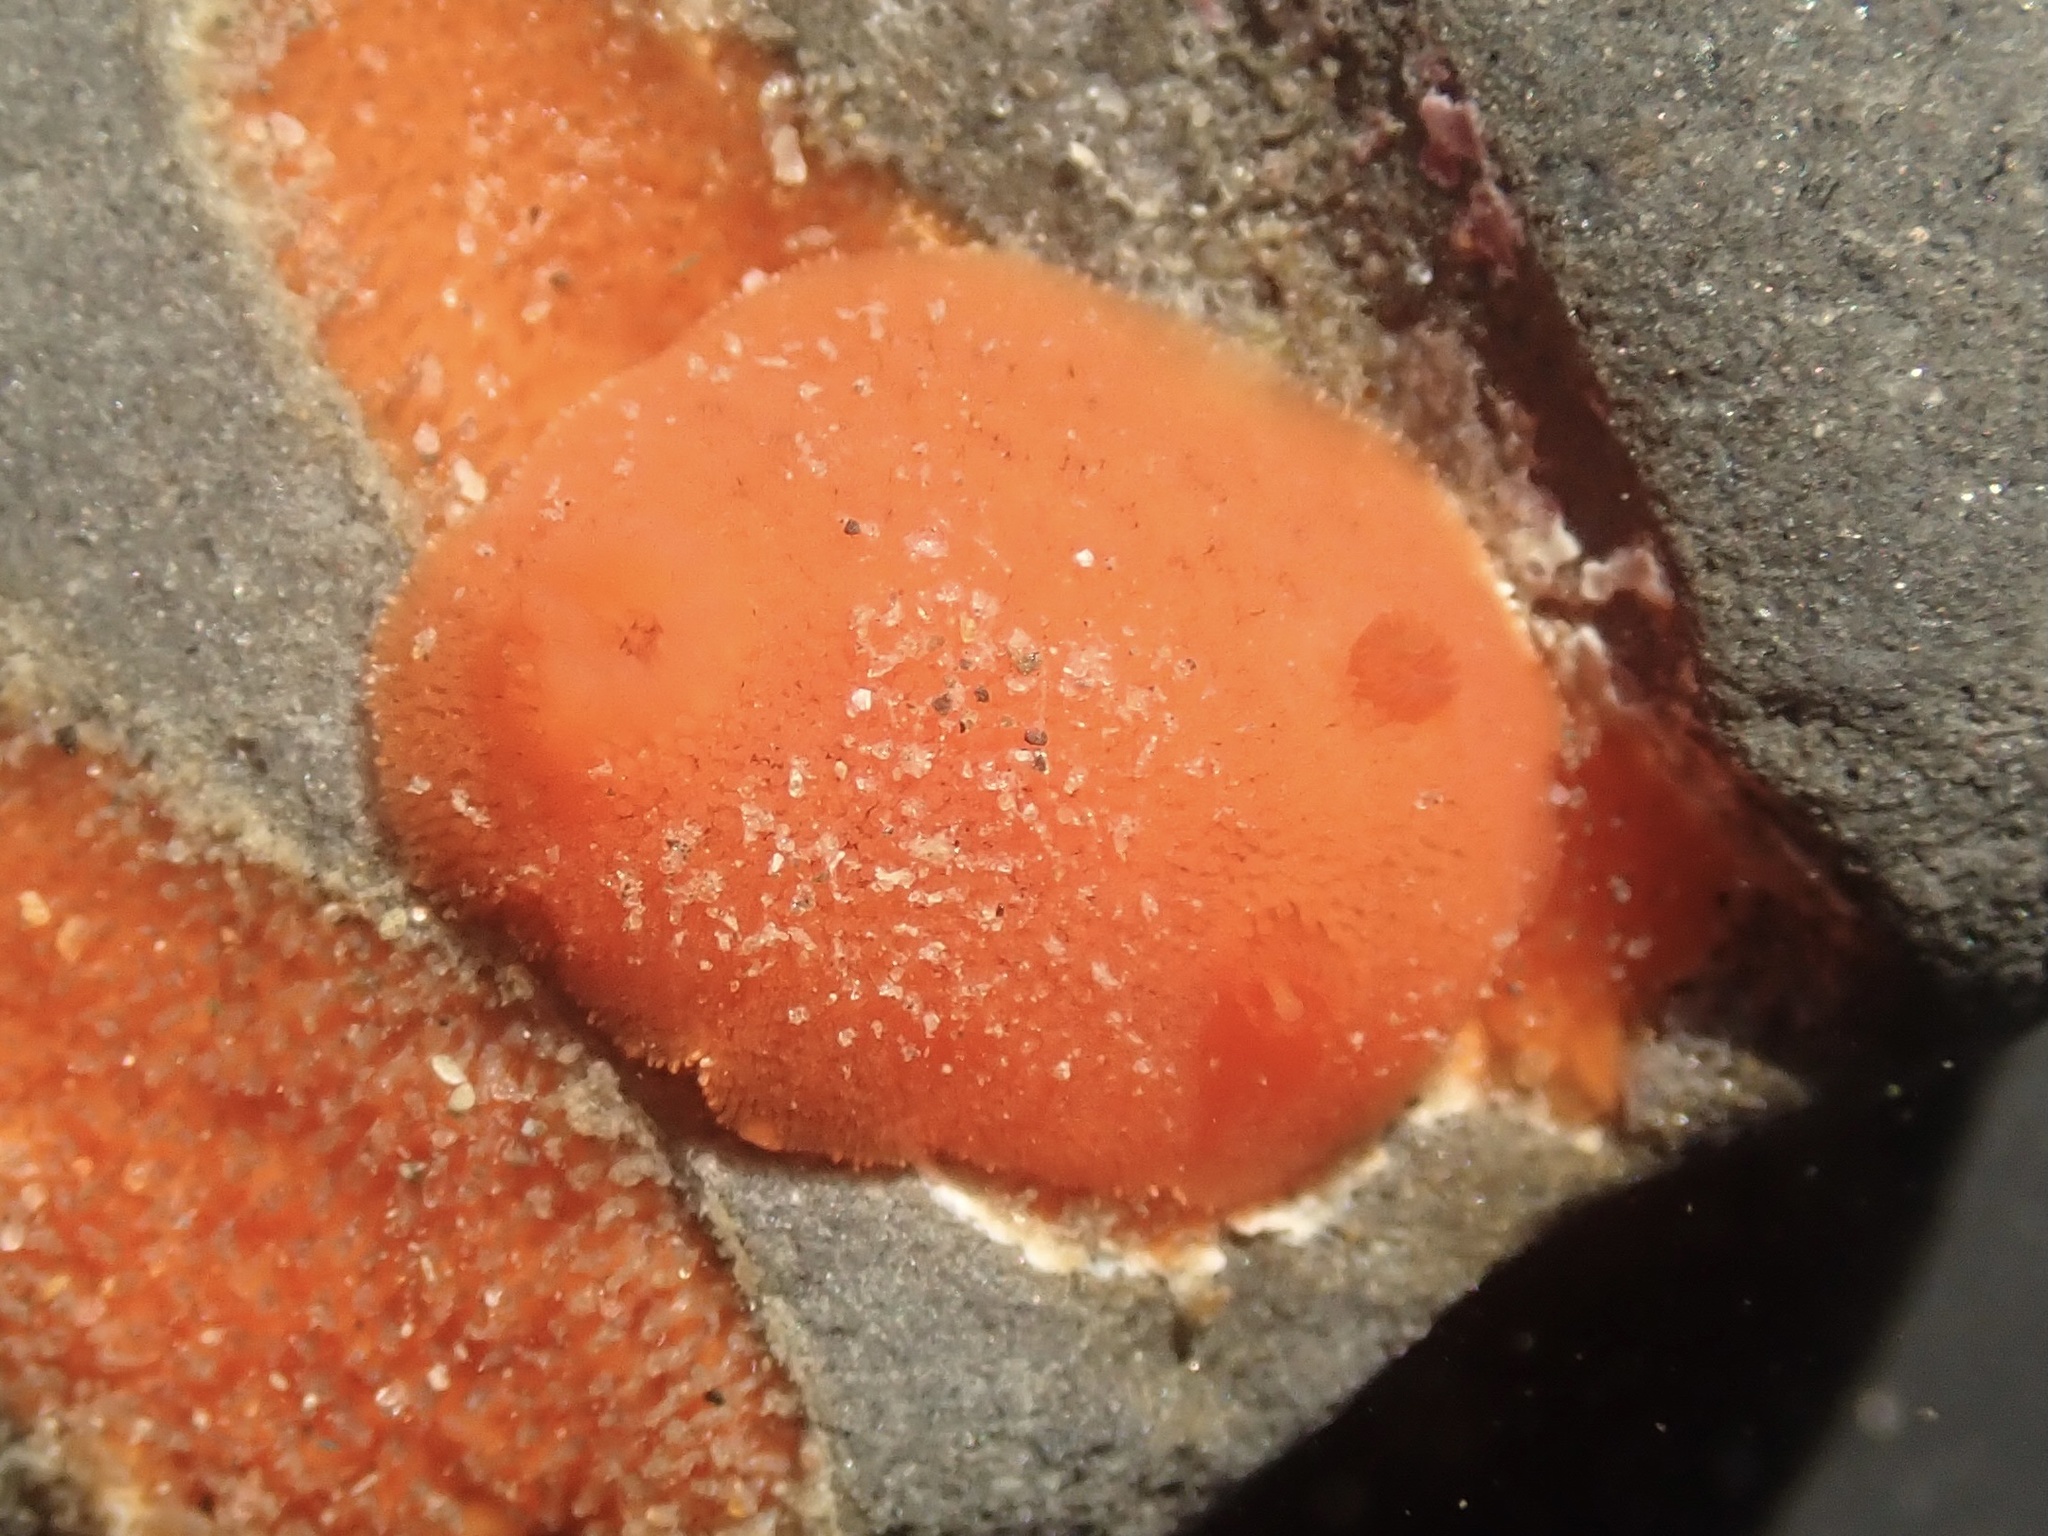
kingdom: Animalia
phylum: Mollusca
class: Gastropoda
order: Nudibranchia
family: Discodorididae
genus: Rostanga
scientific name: Rostanga pulchra
